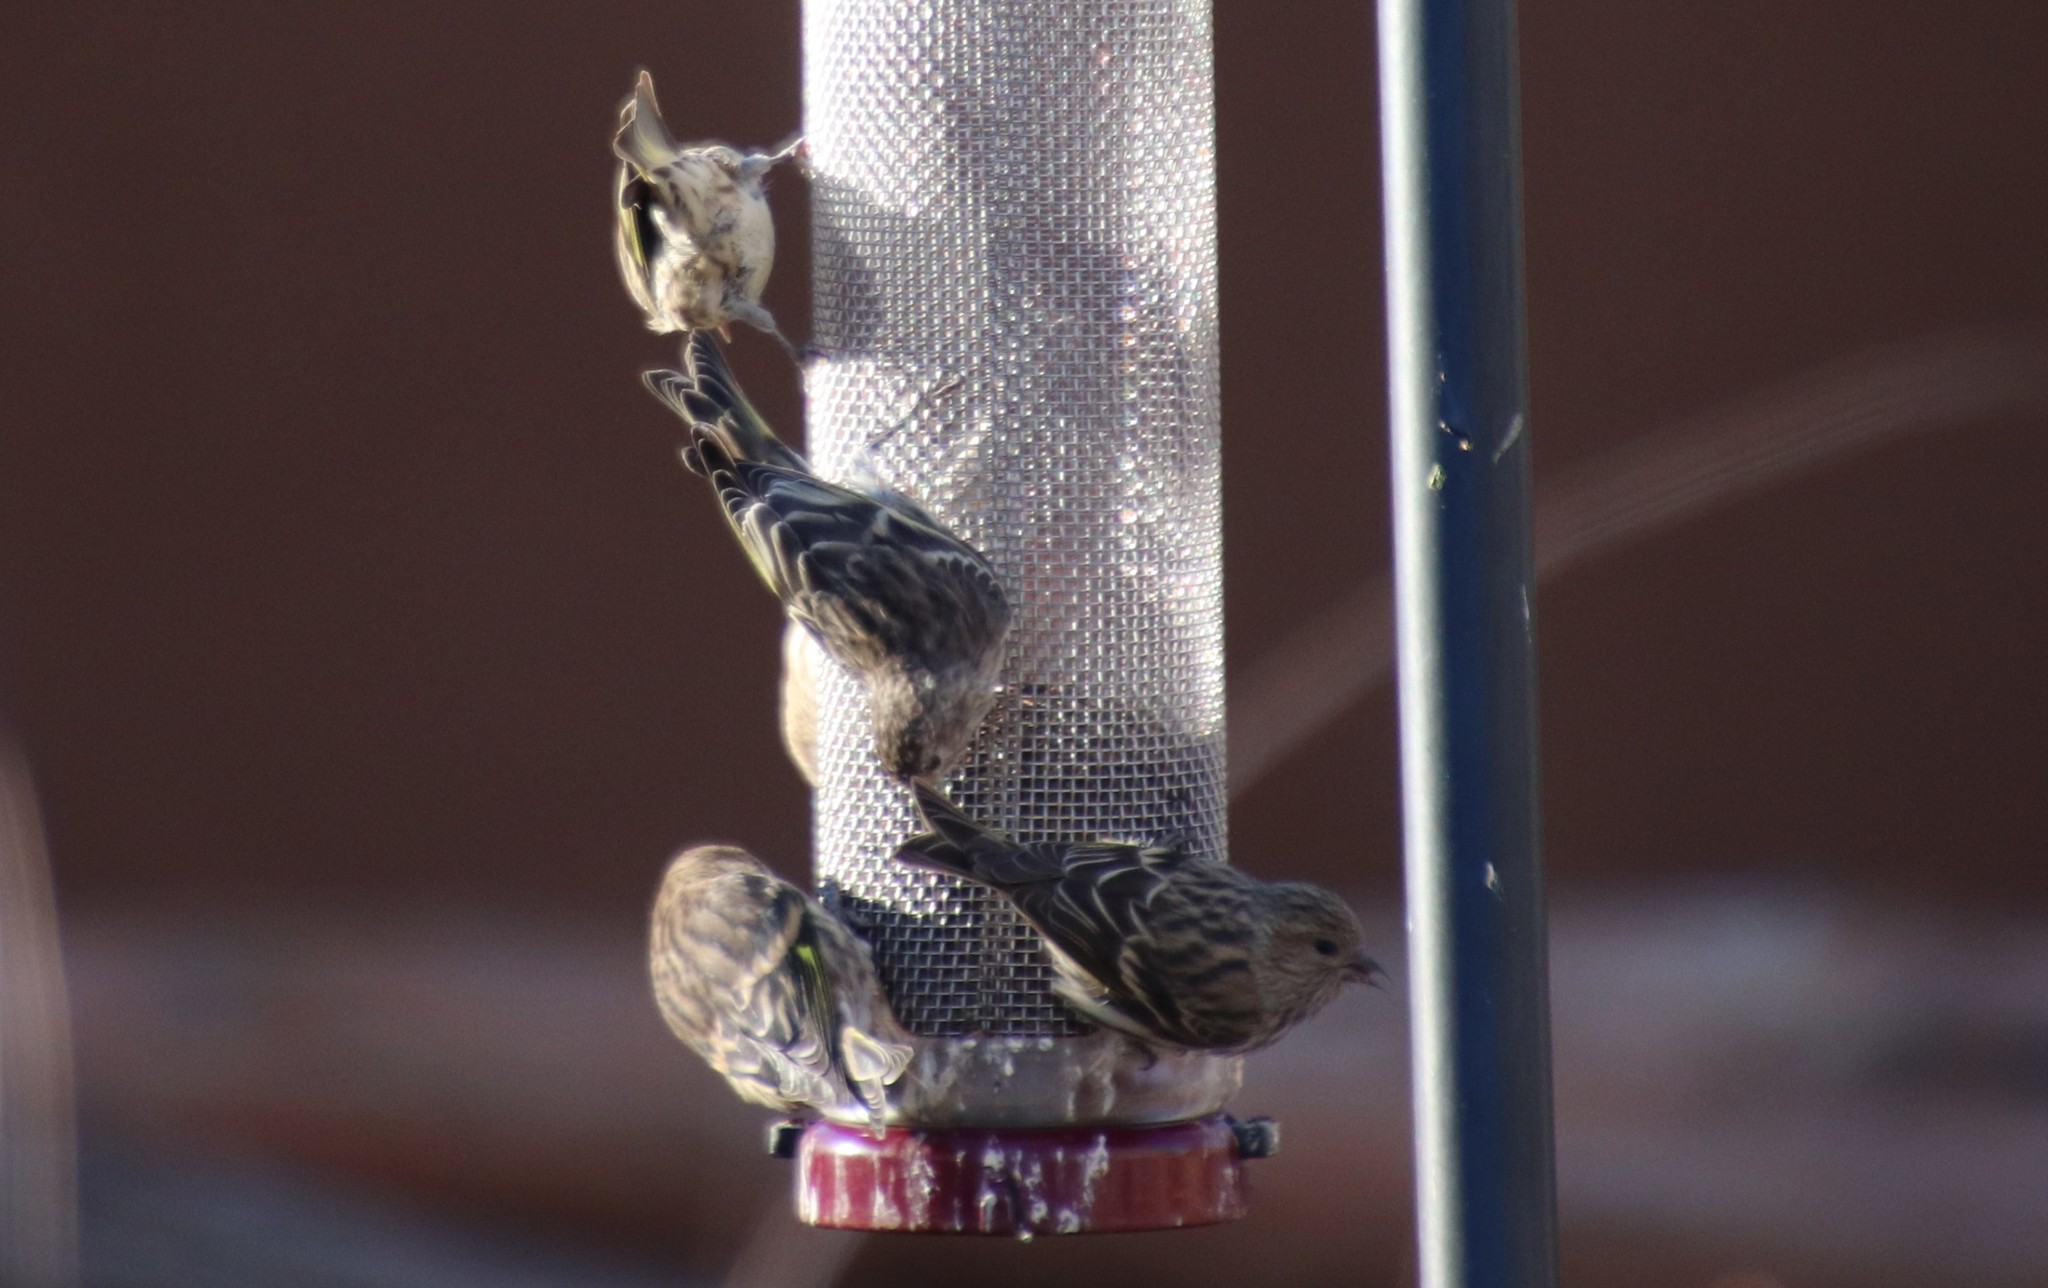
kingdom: Animalia
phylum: Chordata
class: Aves
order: Passeriformes
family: Fringillidae
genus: Spinus
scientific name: Spinus pinus
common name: Pine siskin
